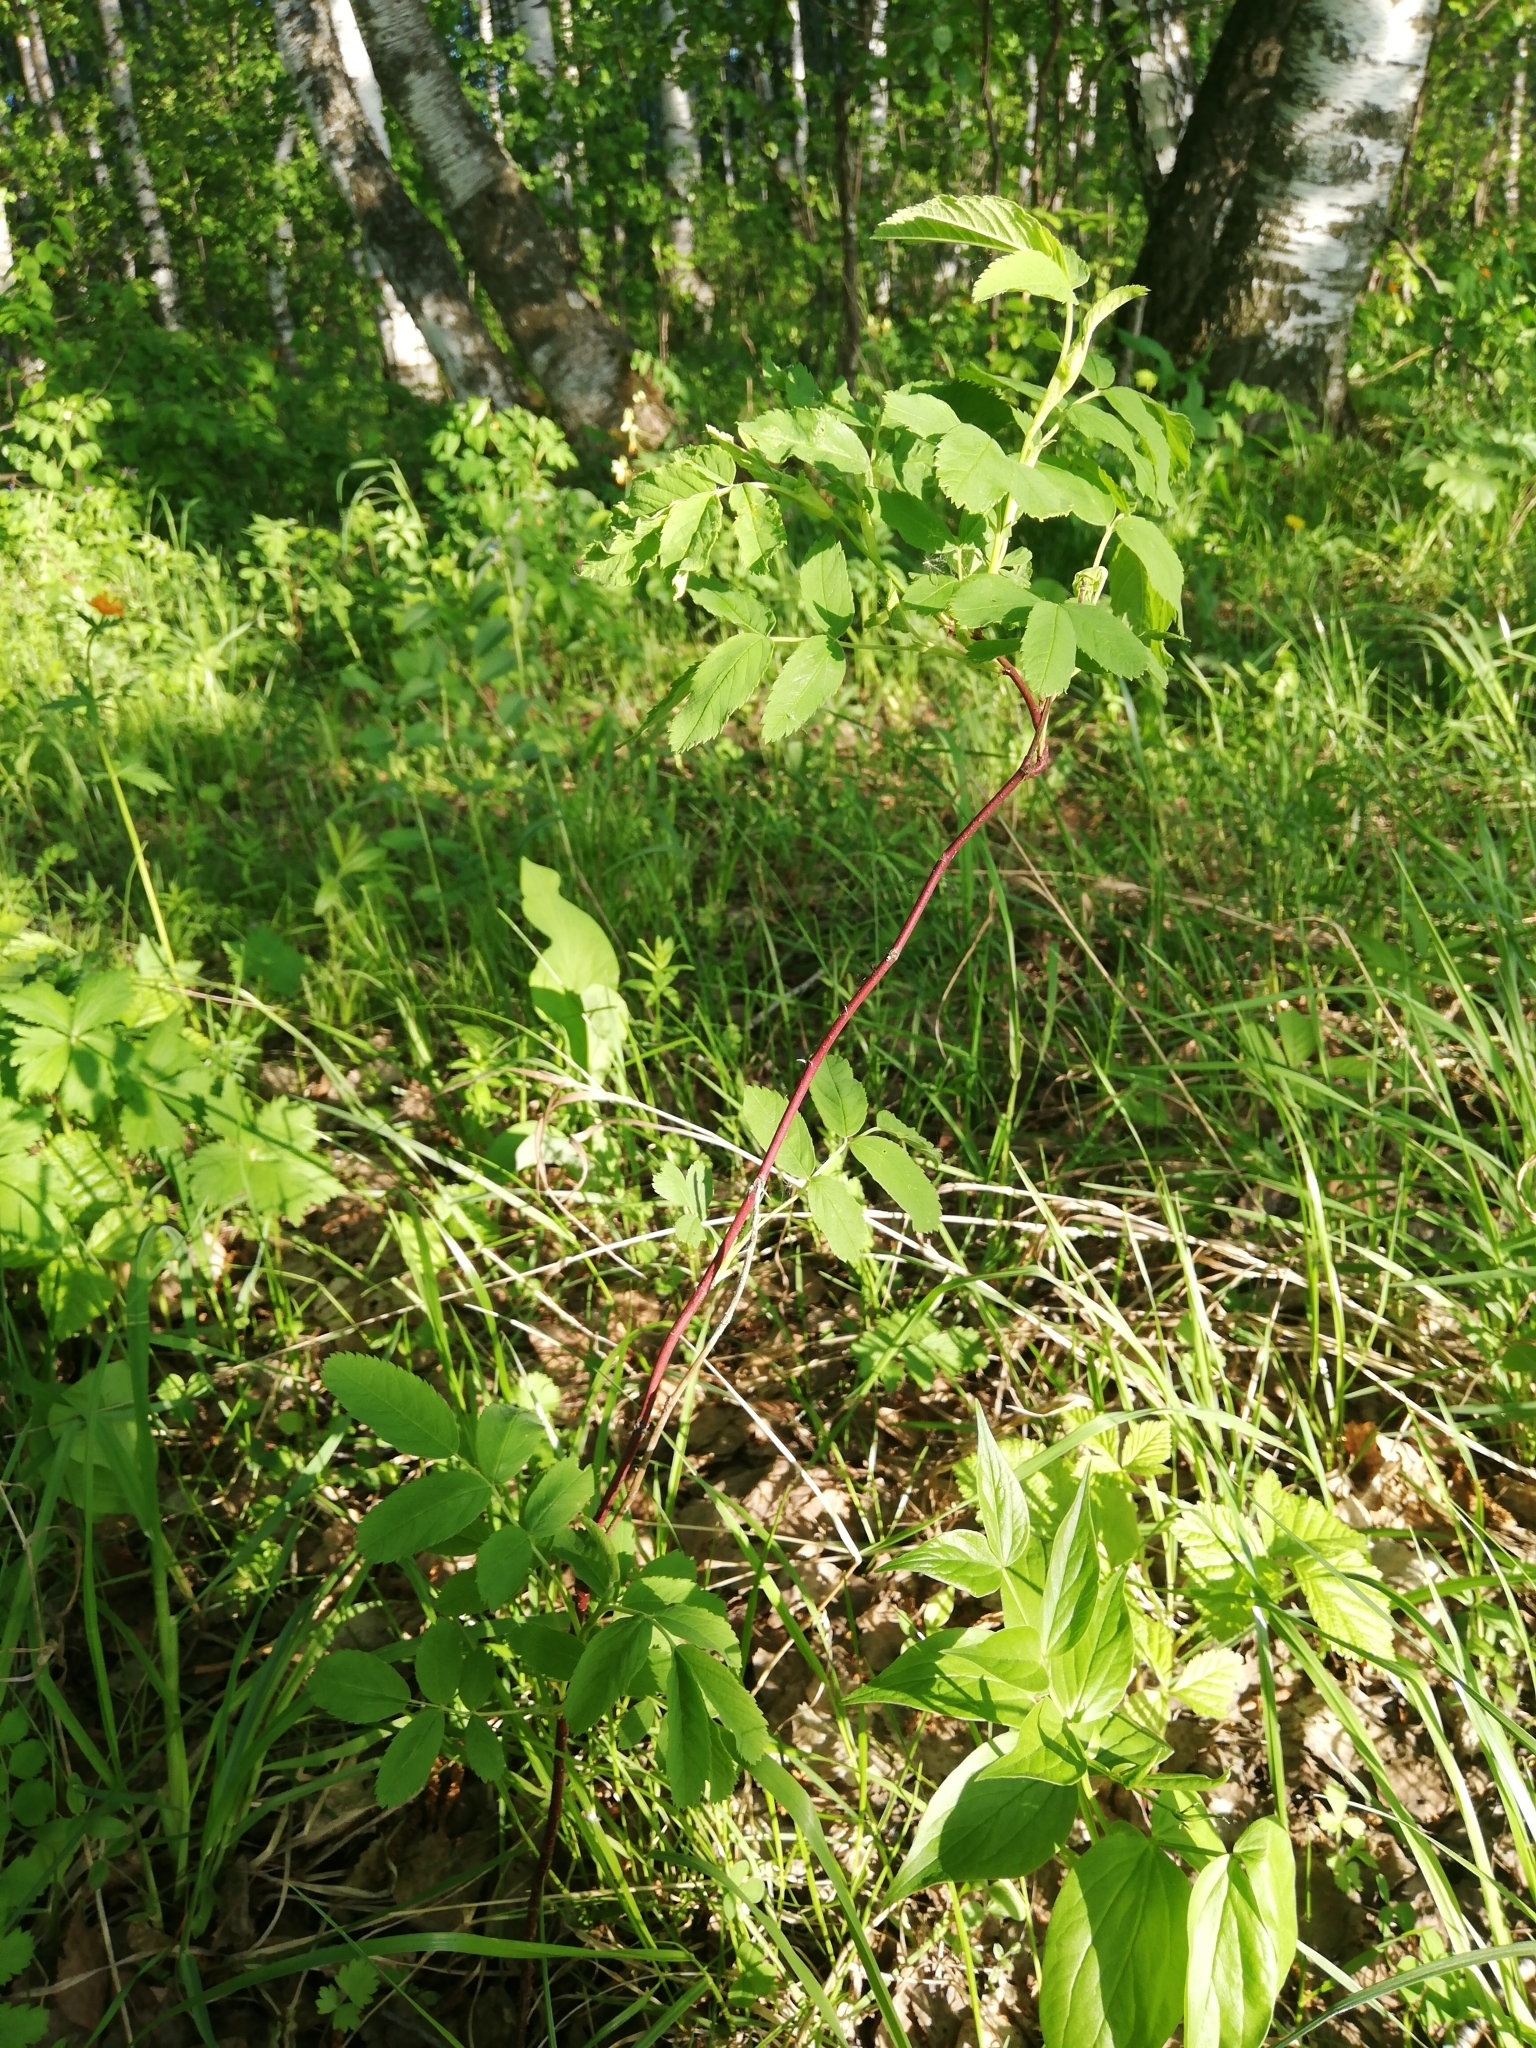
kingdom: Plantae
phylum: Tracheophyta
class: Magnoliopsida
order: Rosales
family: Rosaceae
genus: Rosa
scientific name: Rosa majalis
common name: Cinnamon rose
